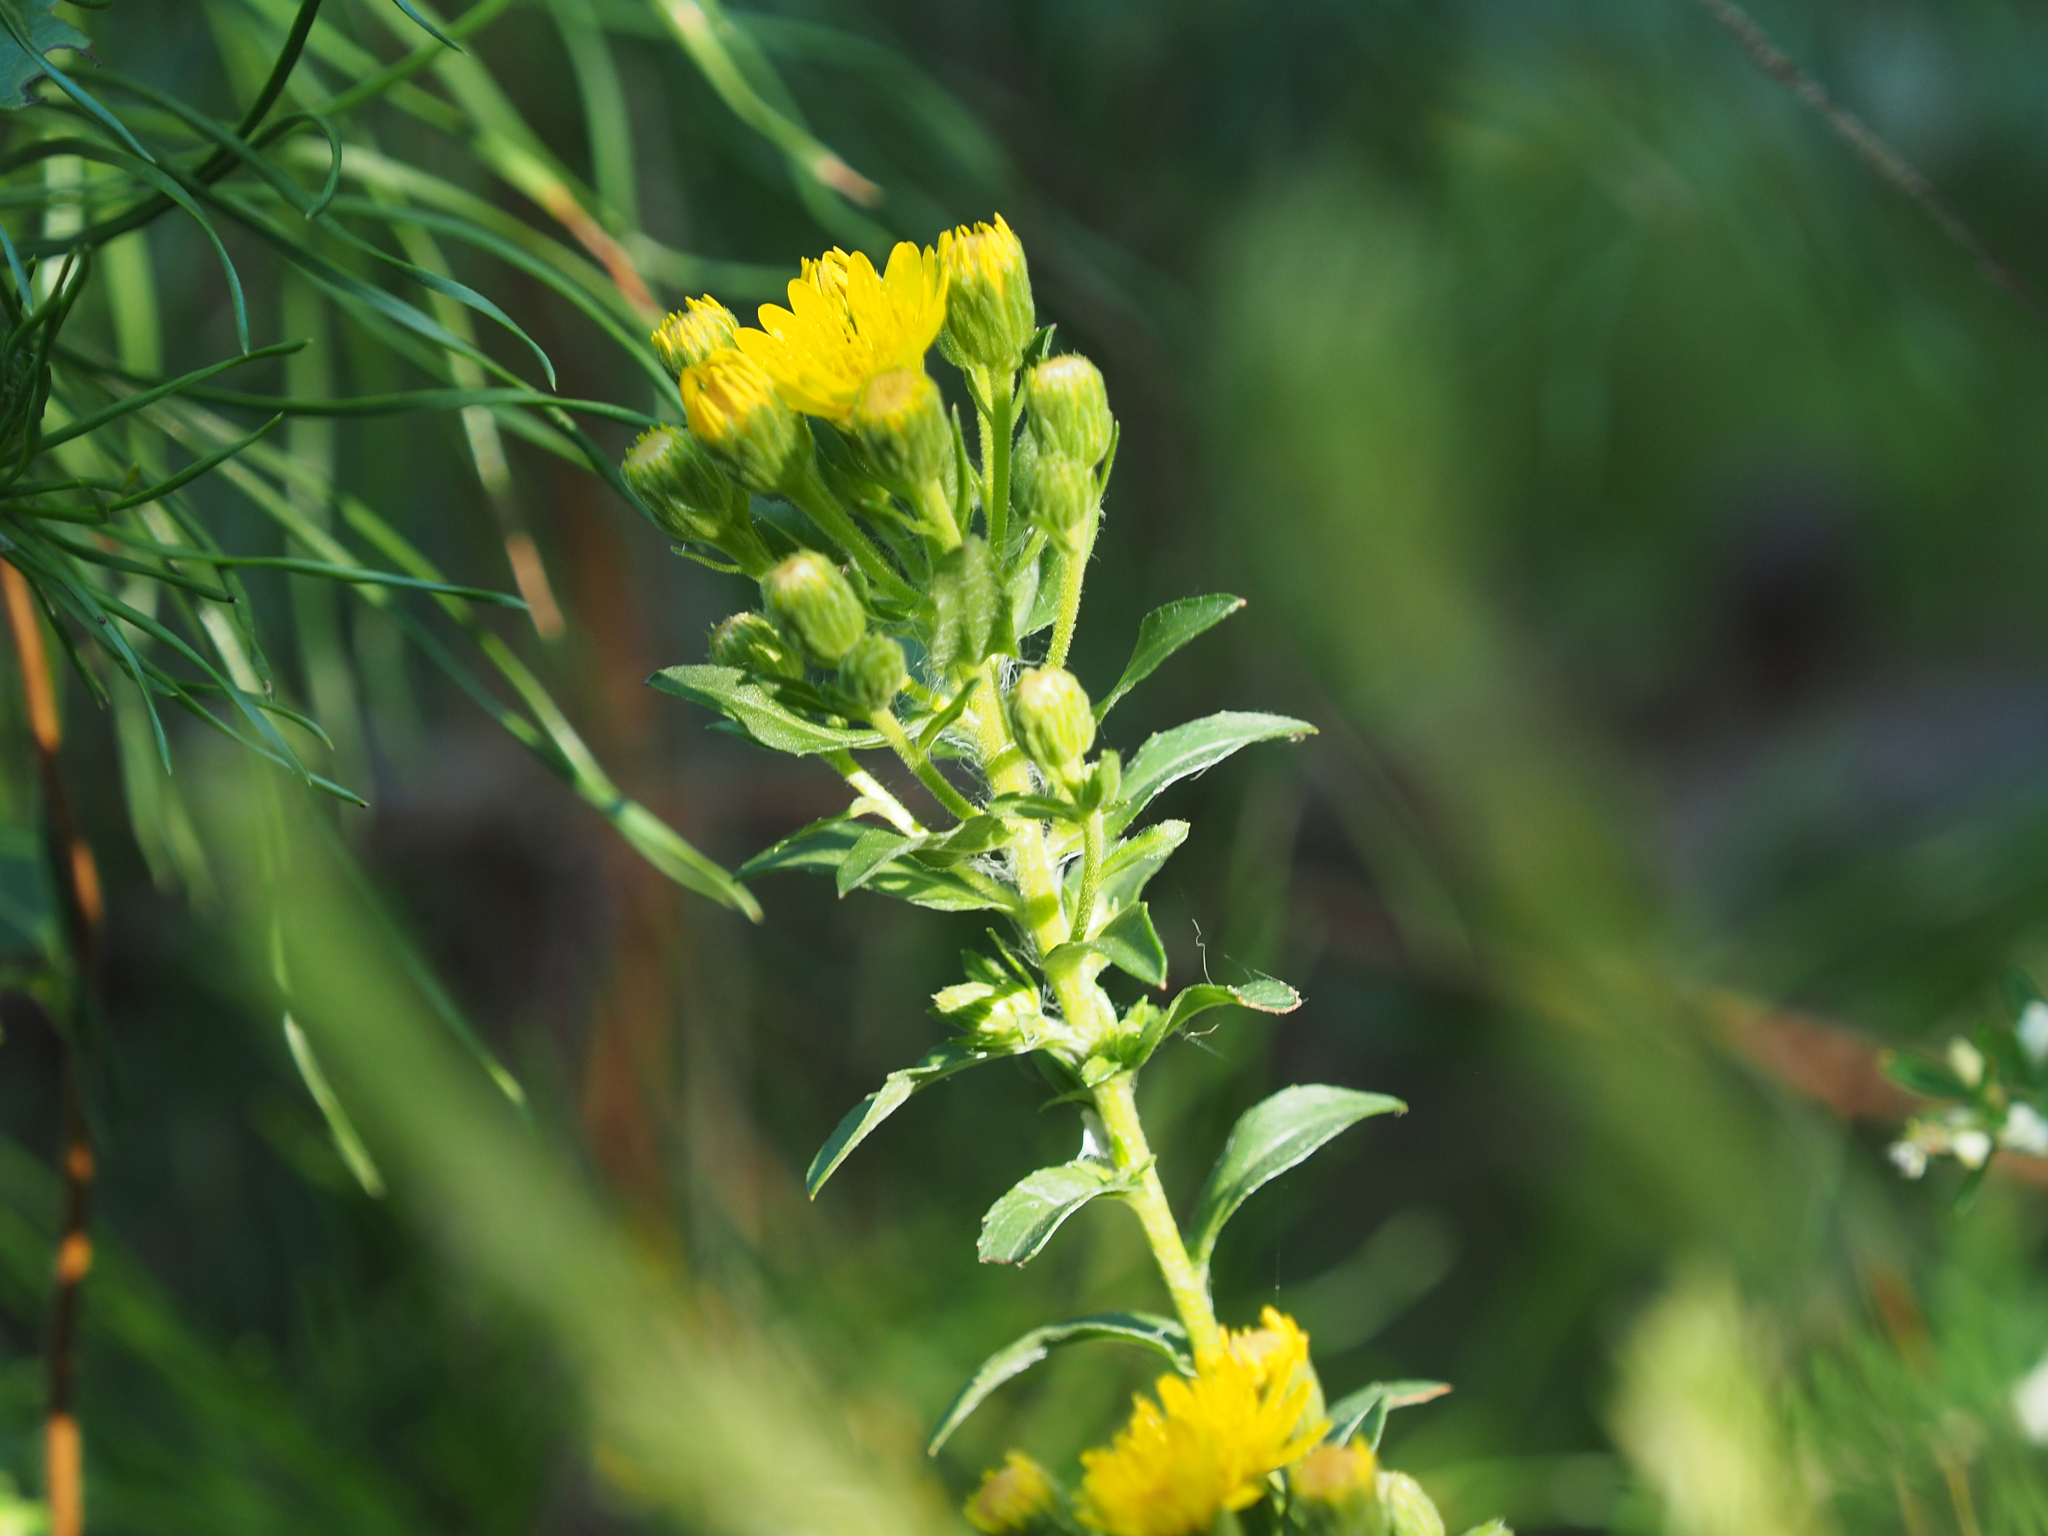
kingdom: Plantae
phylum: Tracheophyta
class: Magnoliopsida
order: Asterales
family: Asteraceae
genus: Chrysopsis
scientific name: Chrysopsis mariana
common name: Maryland golden-aster
